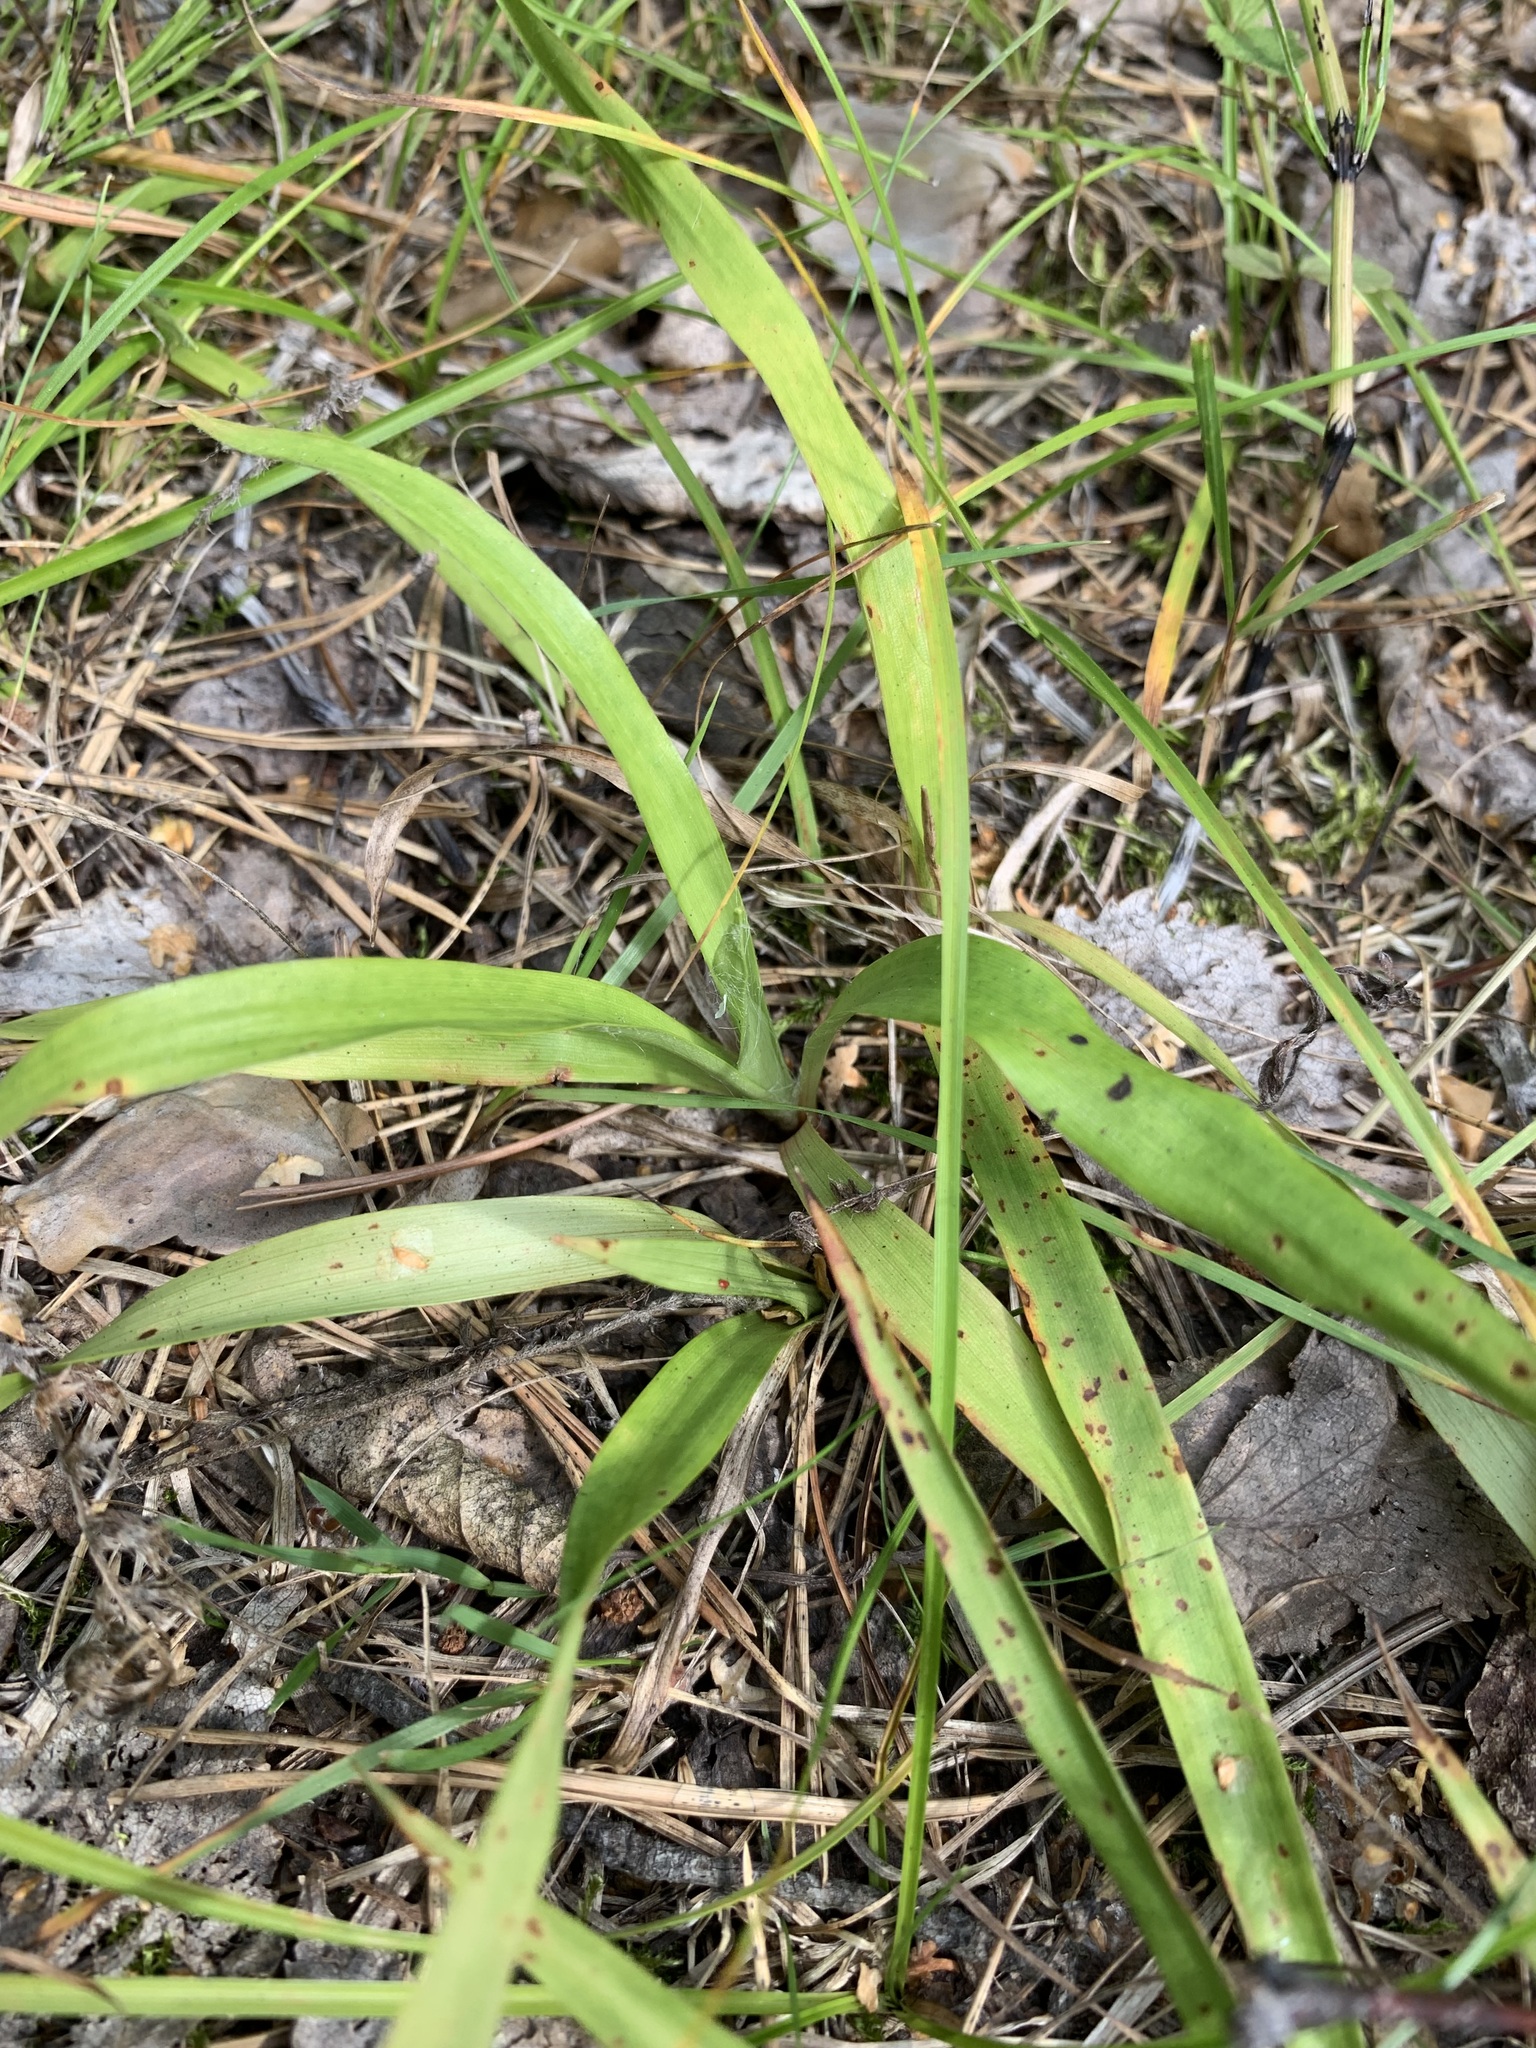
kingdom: Plantae
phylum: Tracheophyta
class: Liliopsida
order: Poales
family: Juncaceae
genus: Luzula
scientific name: Luzula pilosa
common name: Hairy wood-rush
